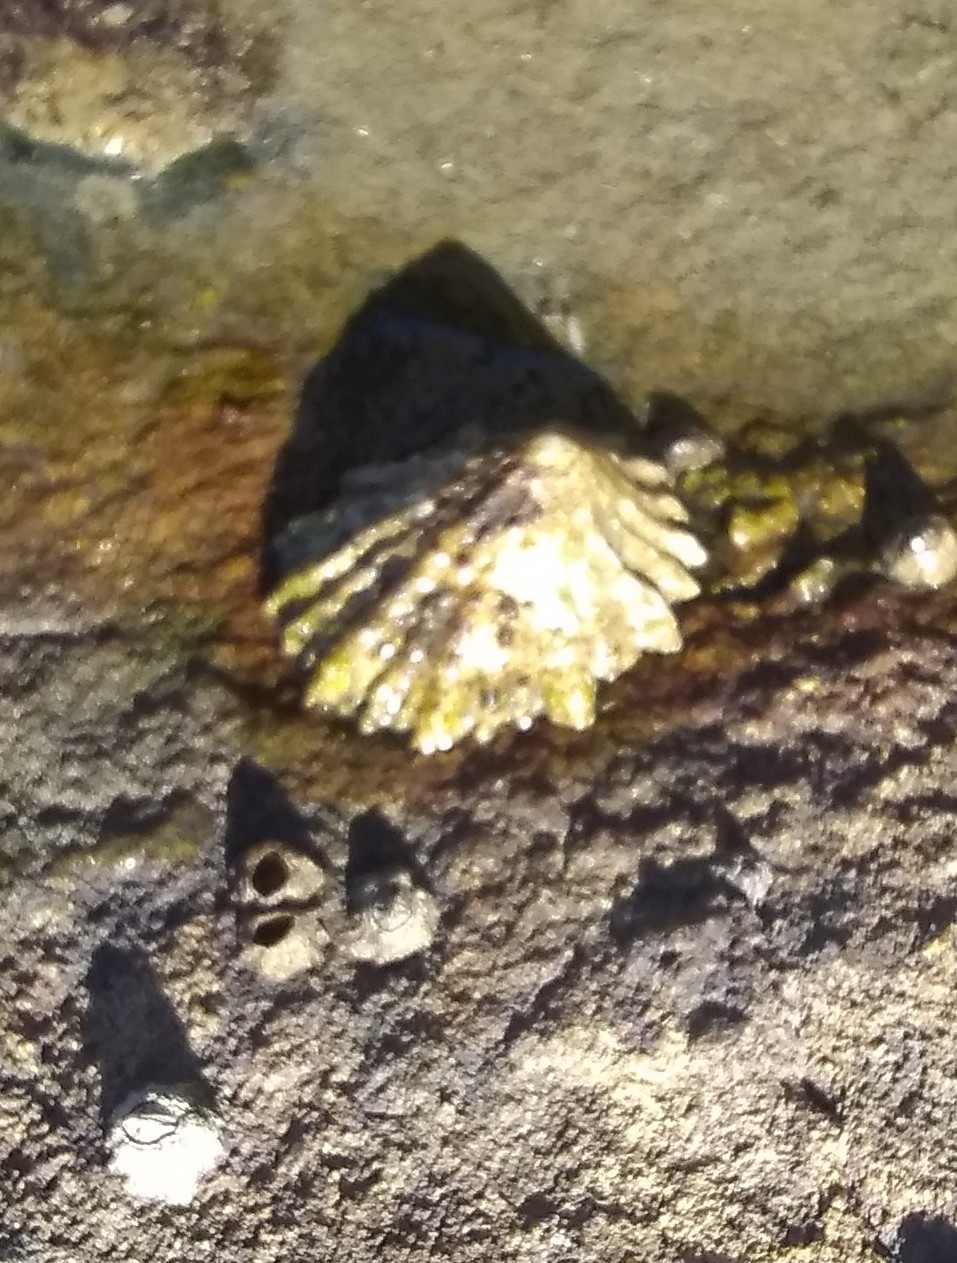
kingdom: Animalia
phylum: Mollusca
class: Gastropoda
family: Lottiidae
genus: Lottia
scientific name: Lottia scabra
